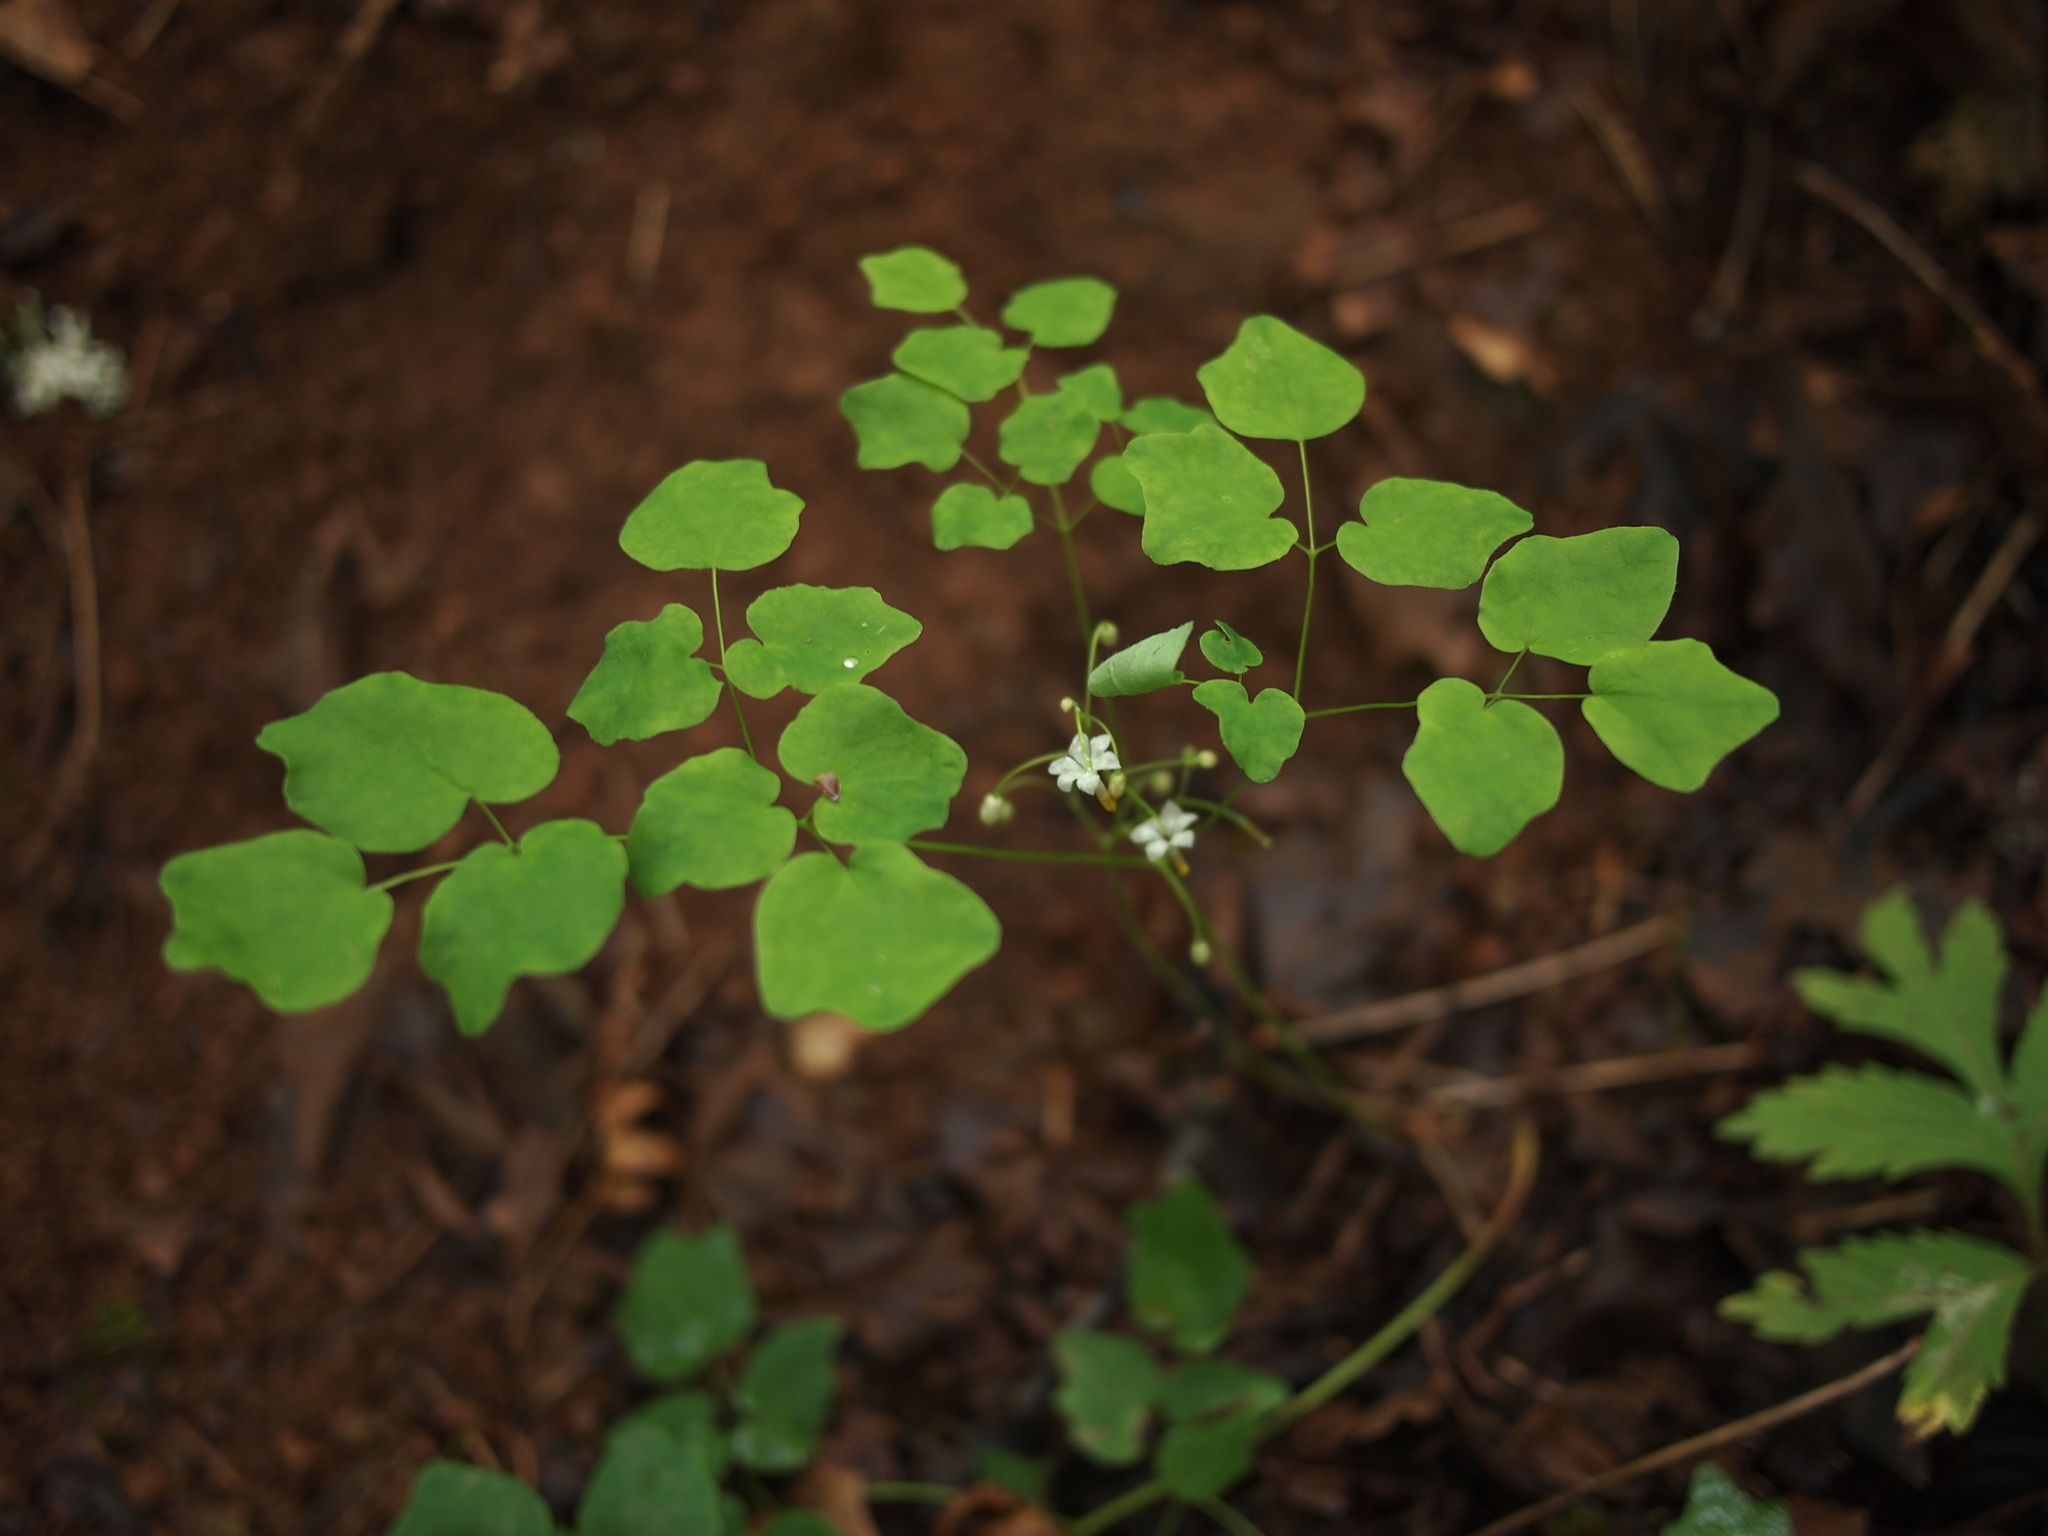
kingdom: Plantae
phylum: Tracheophyta
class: Magnoliopsida
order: Ranunculales
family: Berberidaceae
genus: Vancouveria
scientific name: Vancouveria hexandra
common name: Northern inside-out-flower
